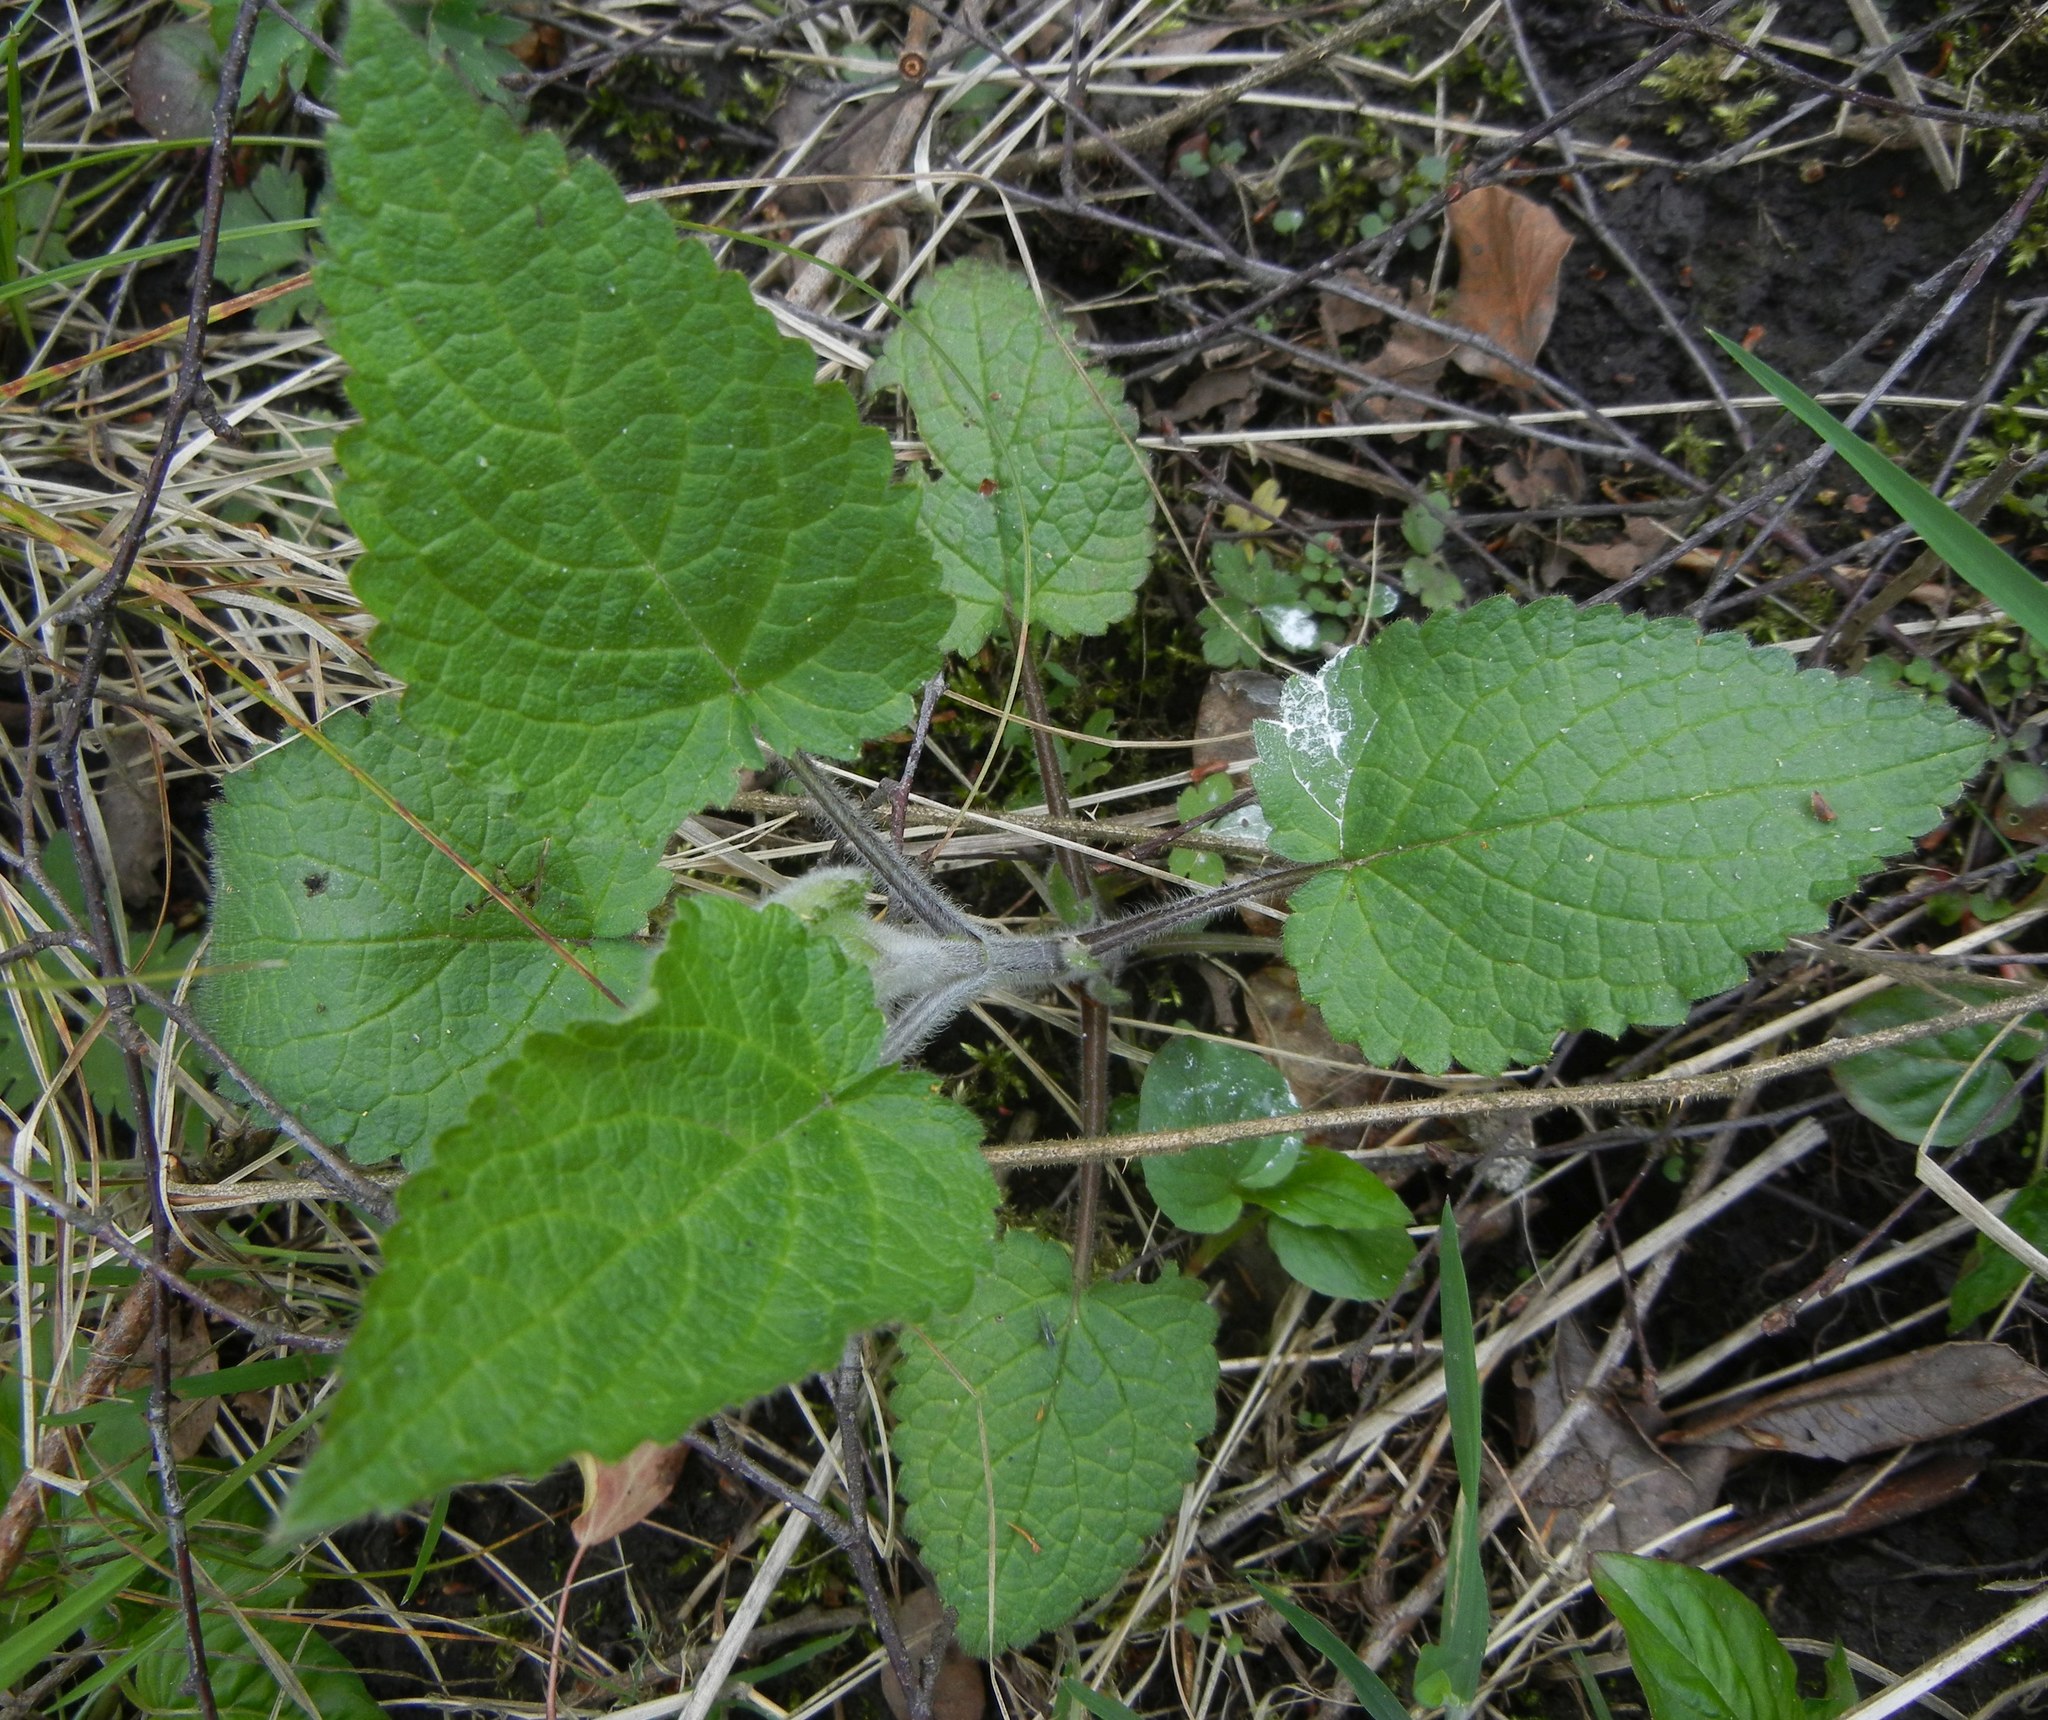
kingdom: Plantae
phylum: Tracheophyta
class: Magnoliopsida
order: Lamiales
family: Lamiaceae
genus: Stachys
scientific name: Stachys sylvatica
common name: Hedge woundwort
